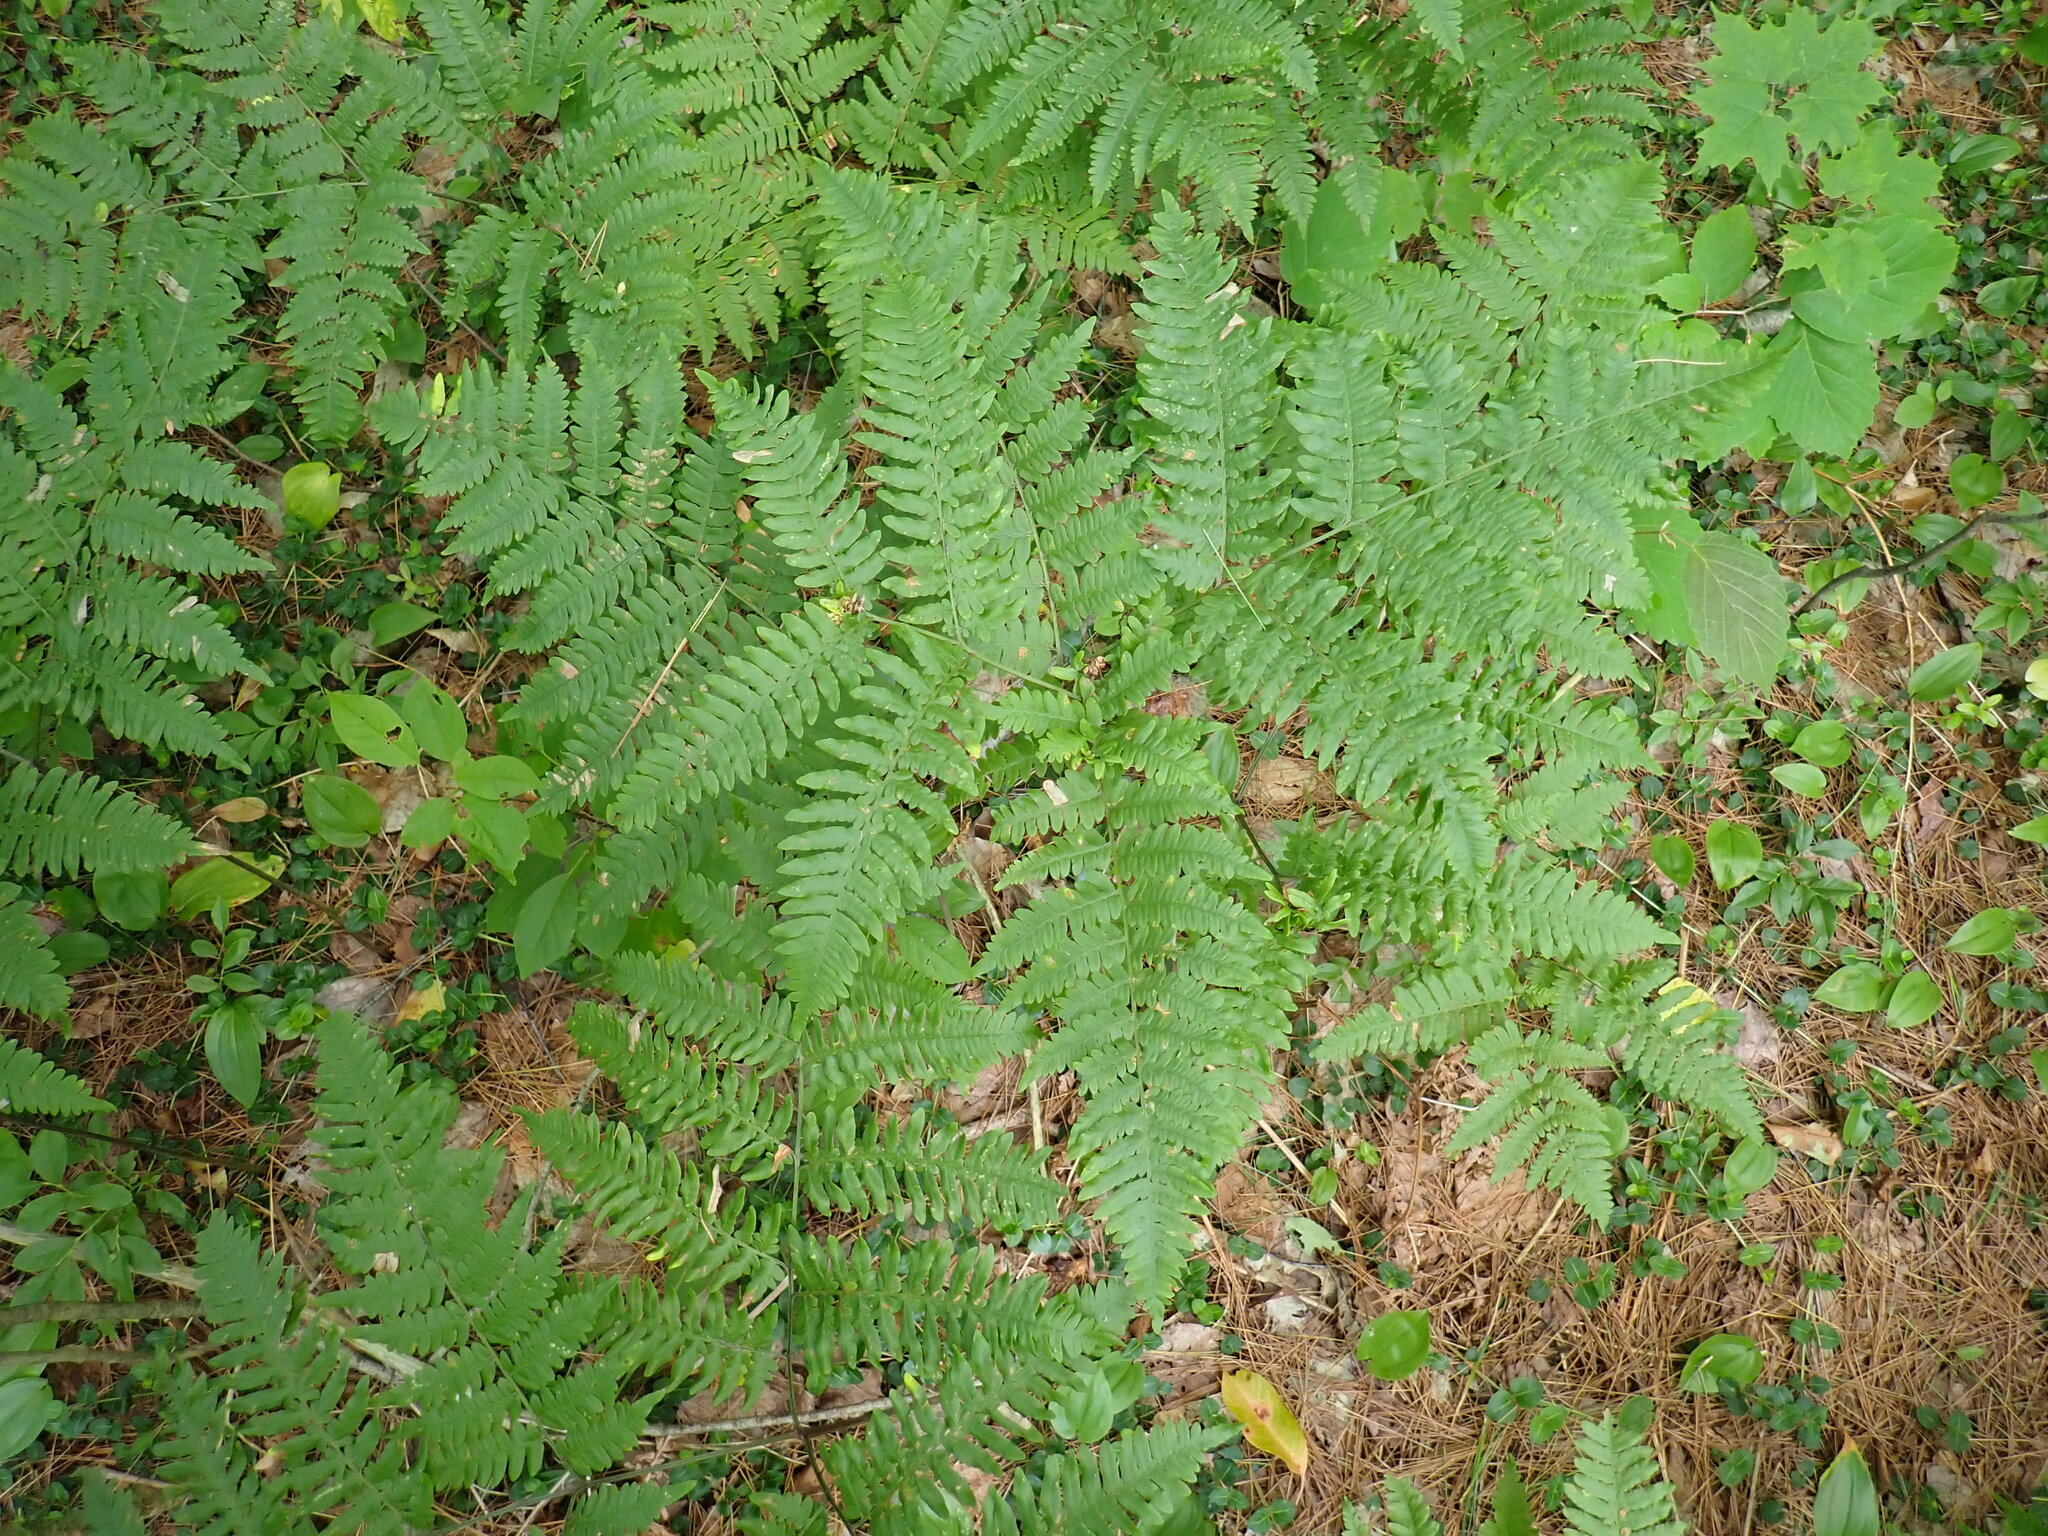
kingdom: Plantae
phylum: Tracheophyta
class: Polypodiopsida
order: Polypodiales
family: Dennstaedtiaceae
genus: Pteridium
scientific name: Pteridium aquilinum
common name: Bracken
